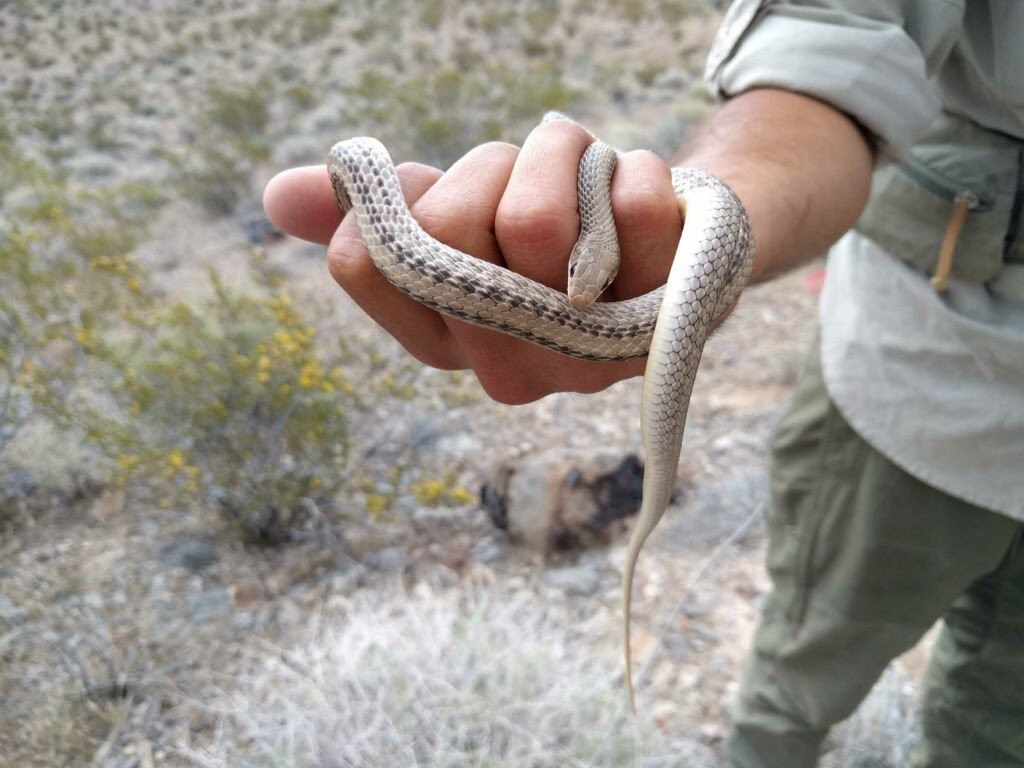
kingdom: Animalia
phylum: Chordata
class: Squamata
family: Colubridae
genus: Salvadora
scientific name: Salvadora hexalepis
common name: Western patchnose snake
